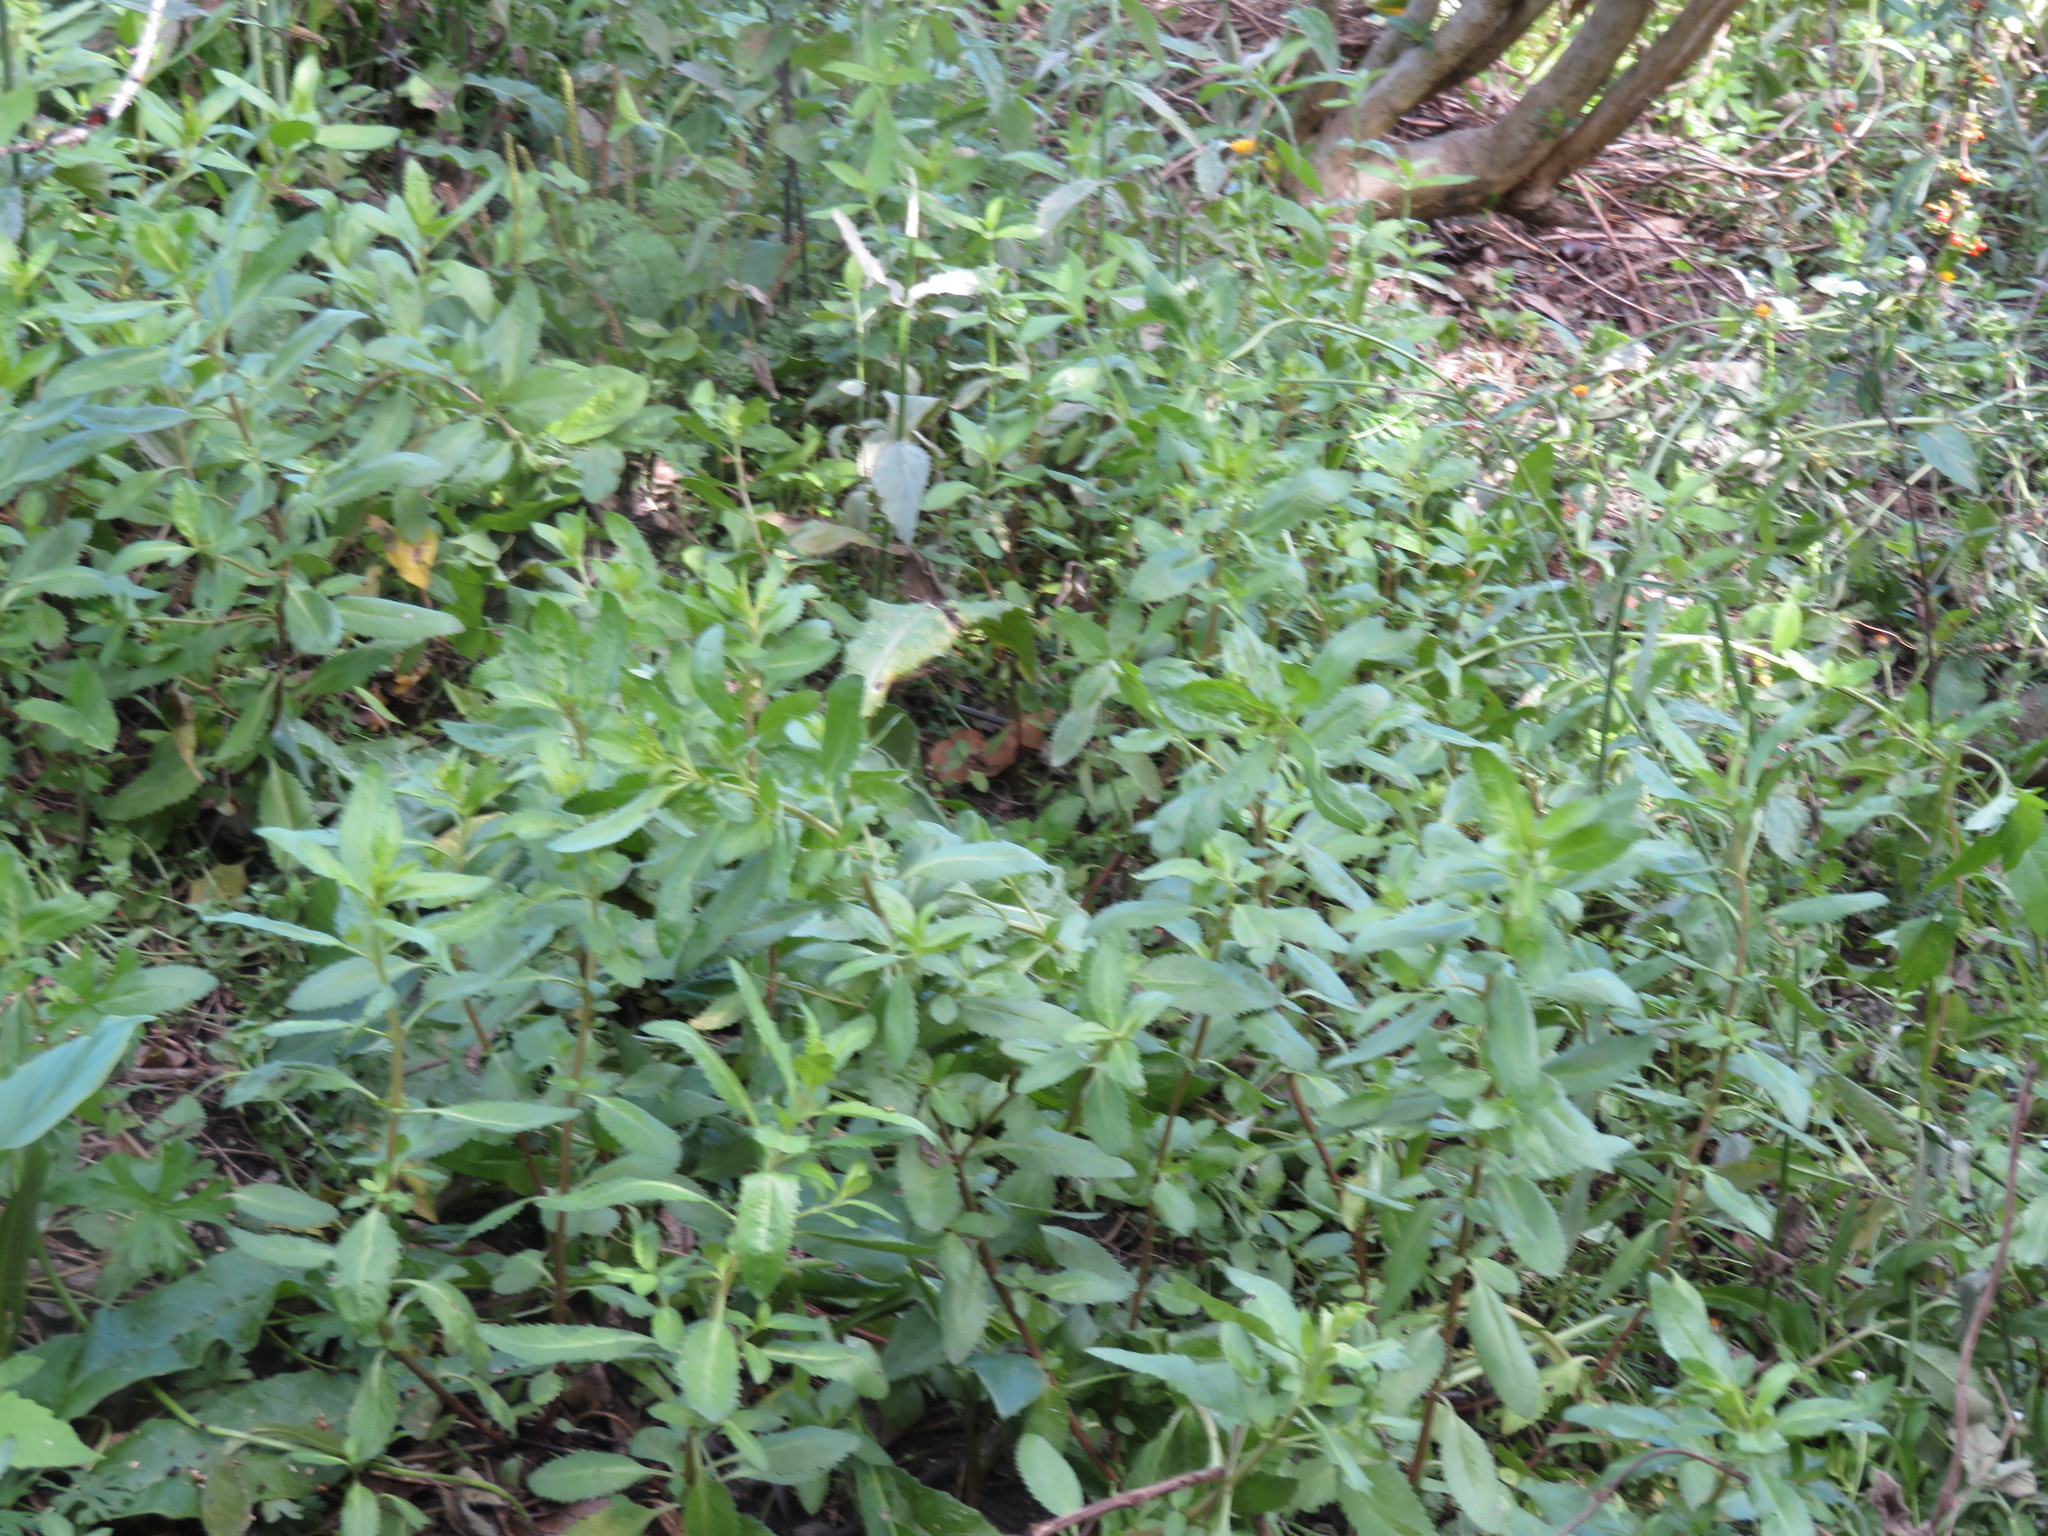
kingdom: Plantae
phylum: Tracheophyta
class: Magnoliopsida
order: Saxifragales
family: Haloragaceae
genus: Haloragis
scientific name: Haloragis erecta
